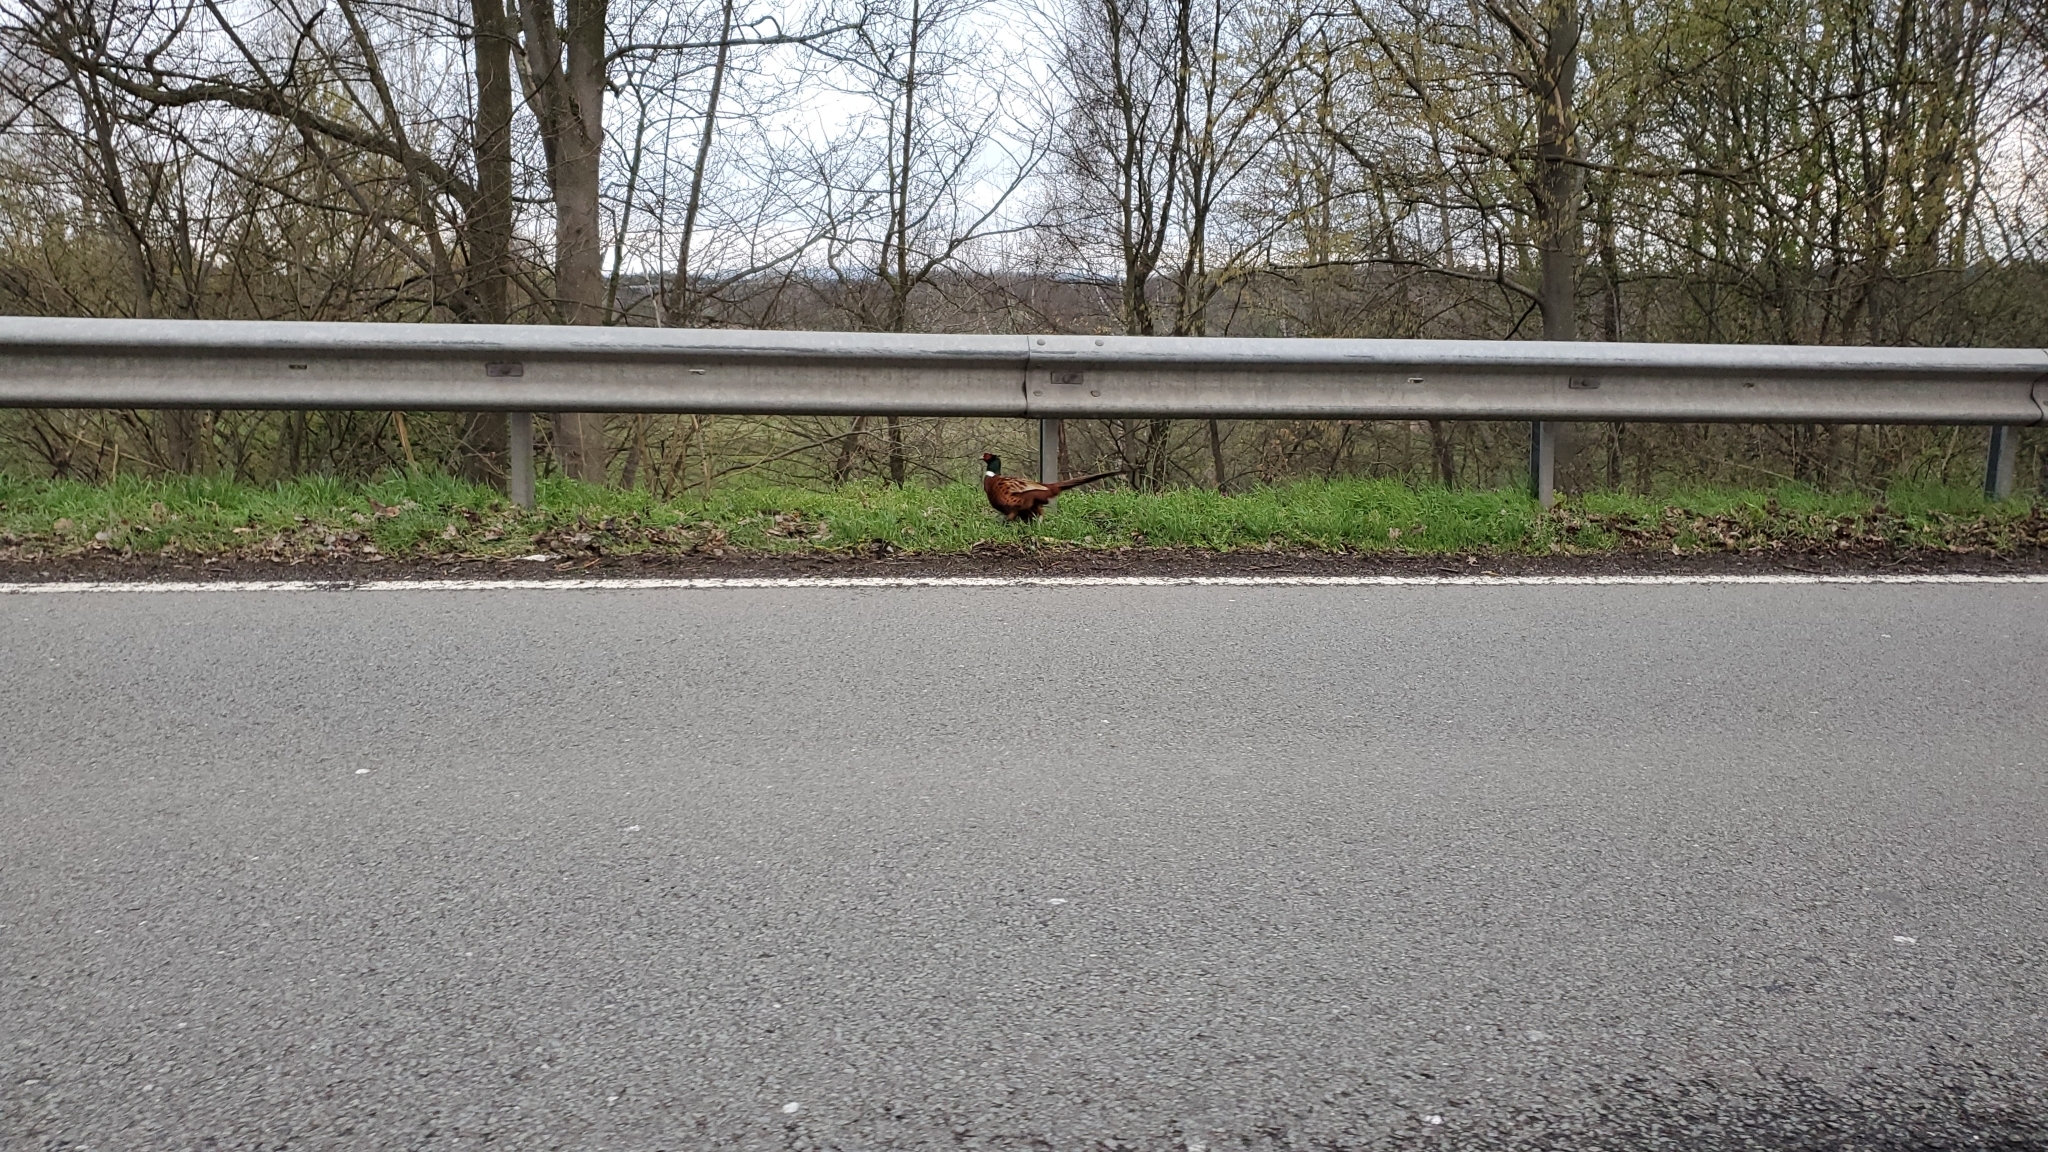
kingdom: Animalia
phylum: Chordata
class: Aves
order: Galliformes
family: Phasianidae
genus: Phasianus
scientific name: Phasianus colchicus
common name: Common pheasant
